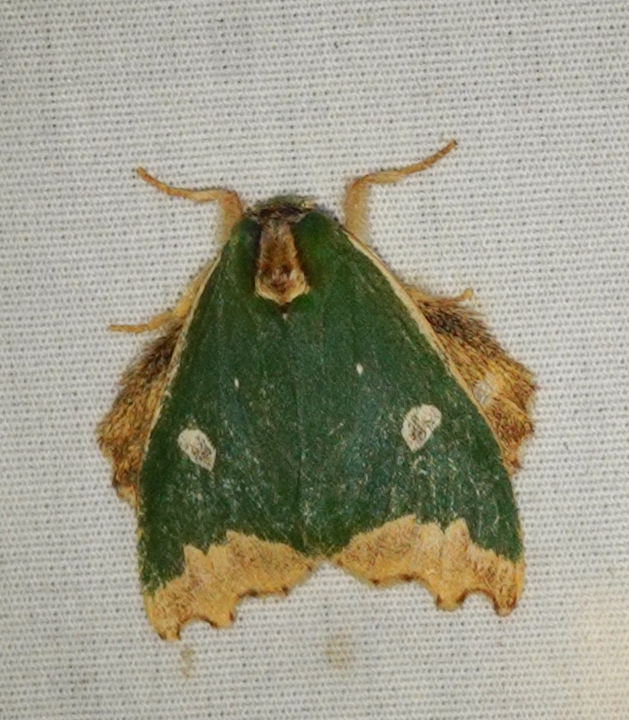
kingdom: Animalia
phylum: Arthropoda
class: Insecta
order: Lepidoptera
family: Notodontidae
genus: Rosema
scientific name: Rosema epigena
